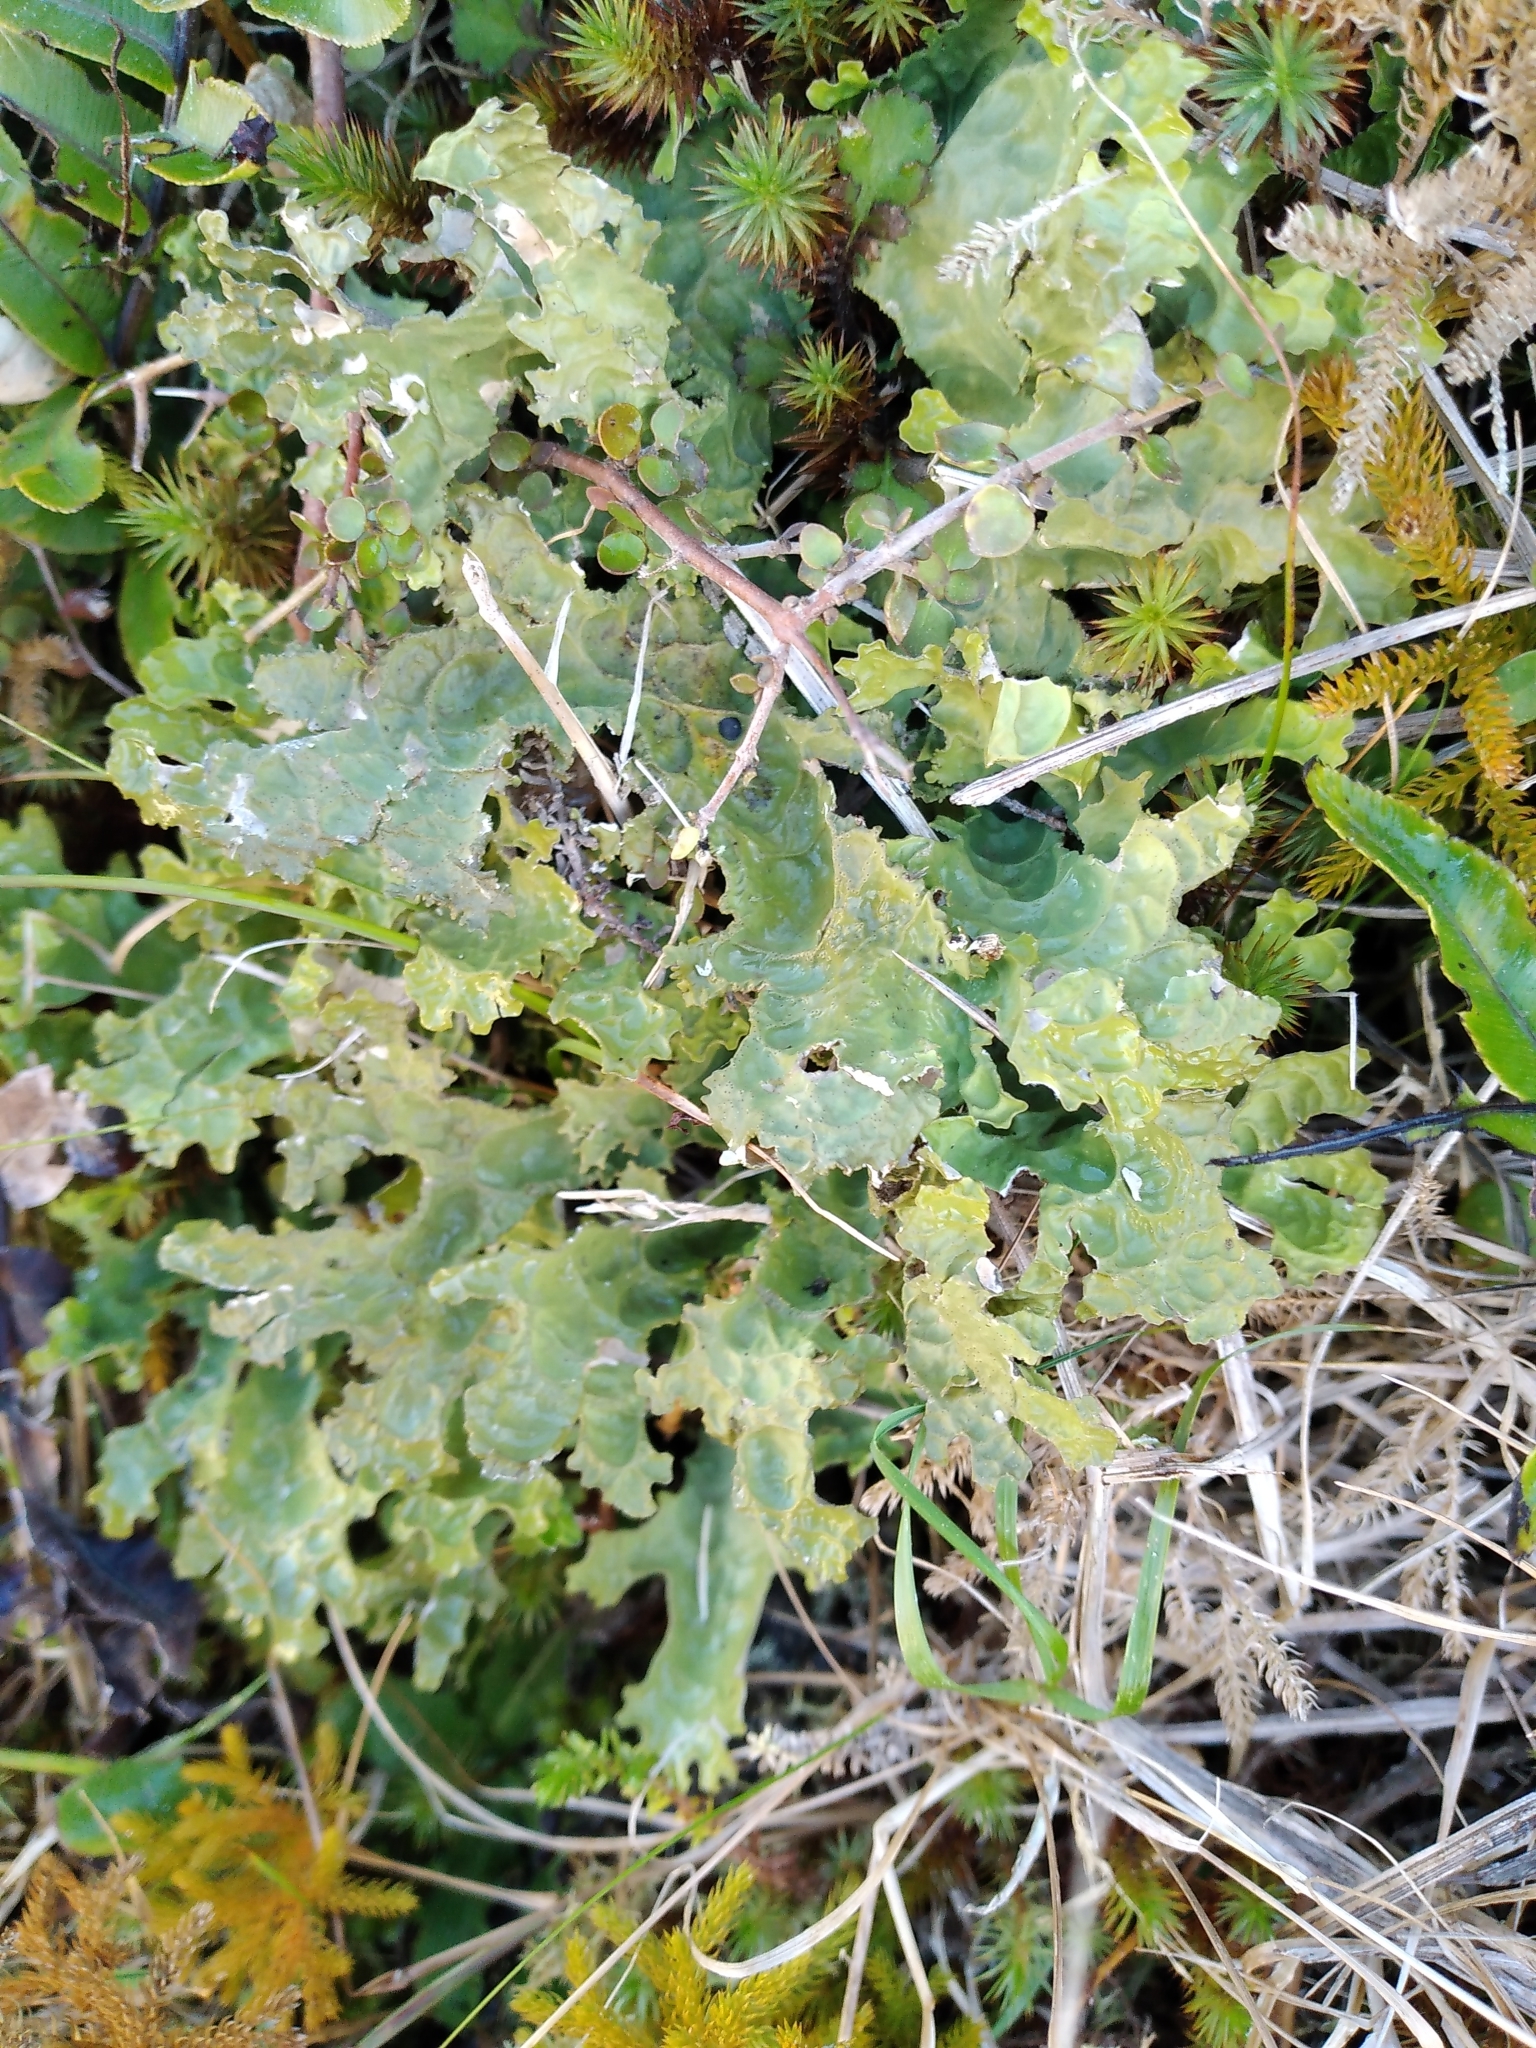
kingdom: Fungi
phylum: Ascomycota
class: Lecanoromycetes
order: Peltigerales
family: Lobariaceae
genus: Pseudocyphellaria
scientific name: Pseudocyphellaria rufovirescens
